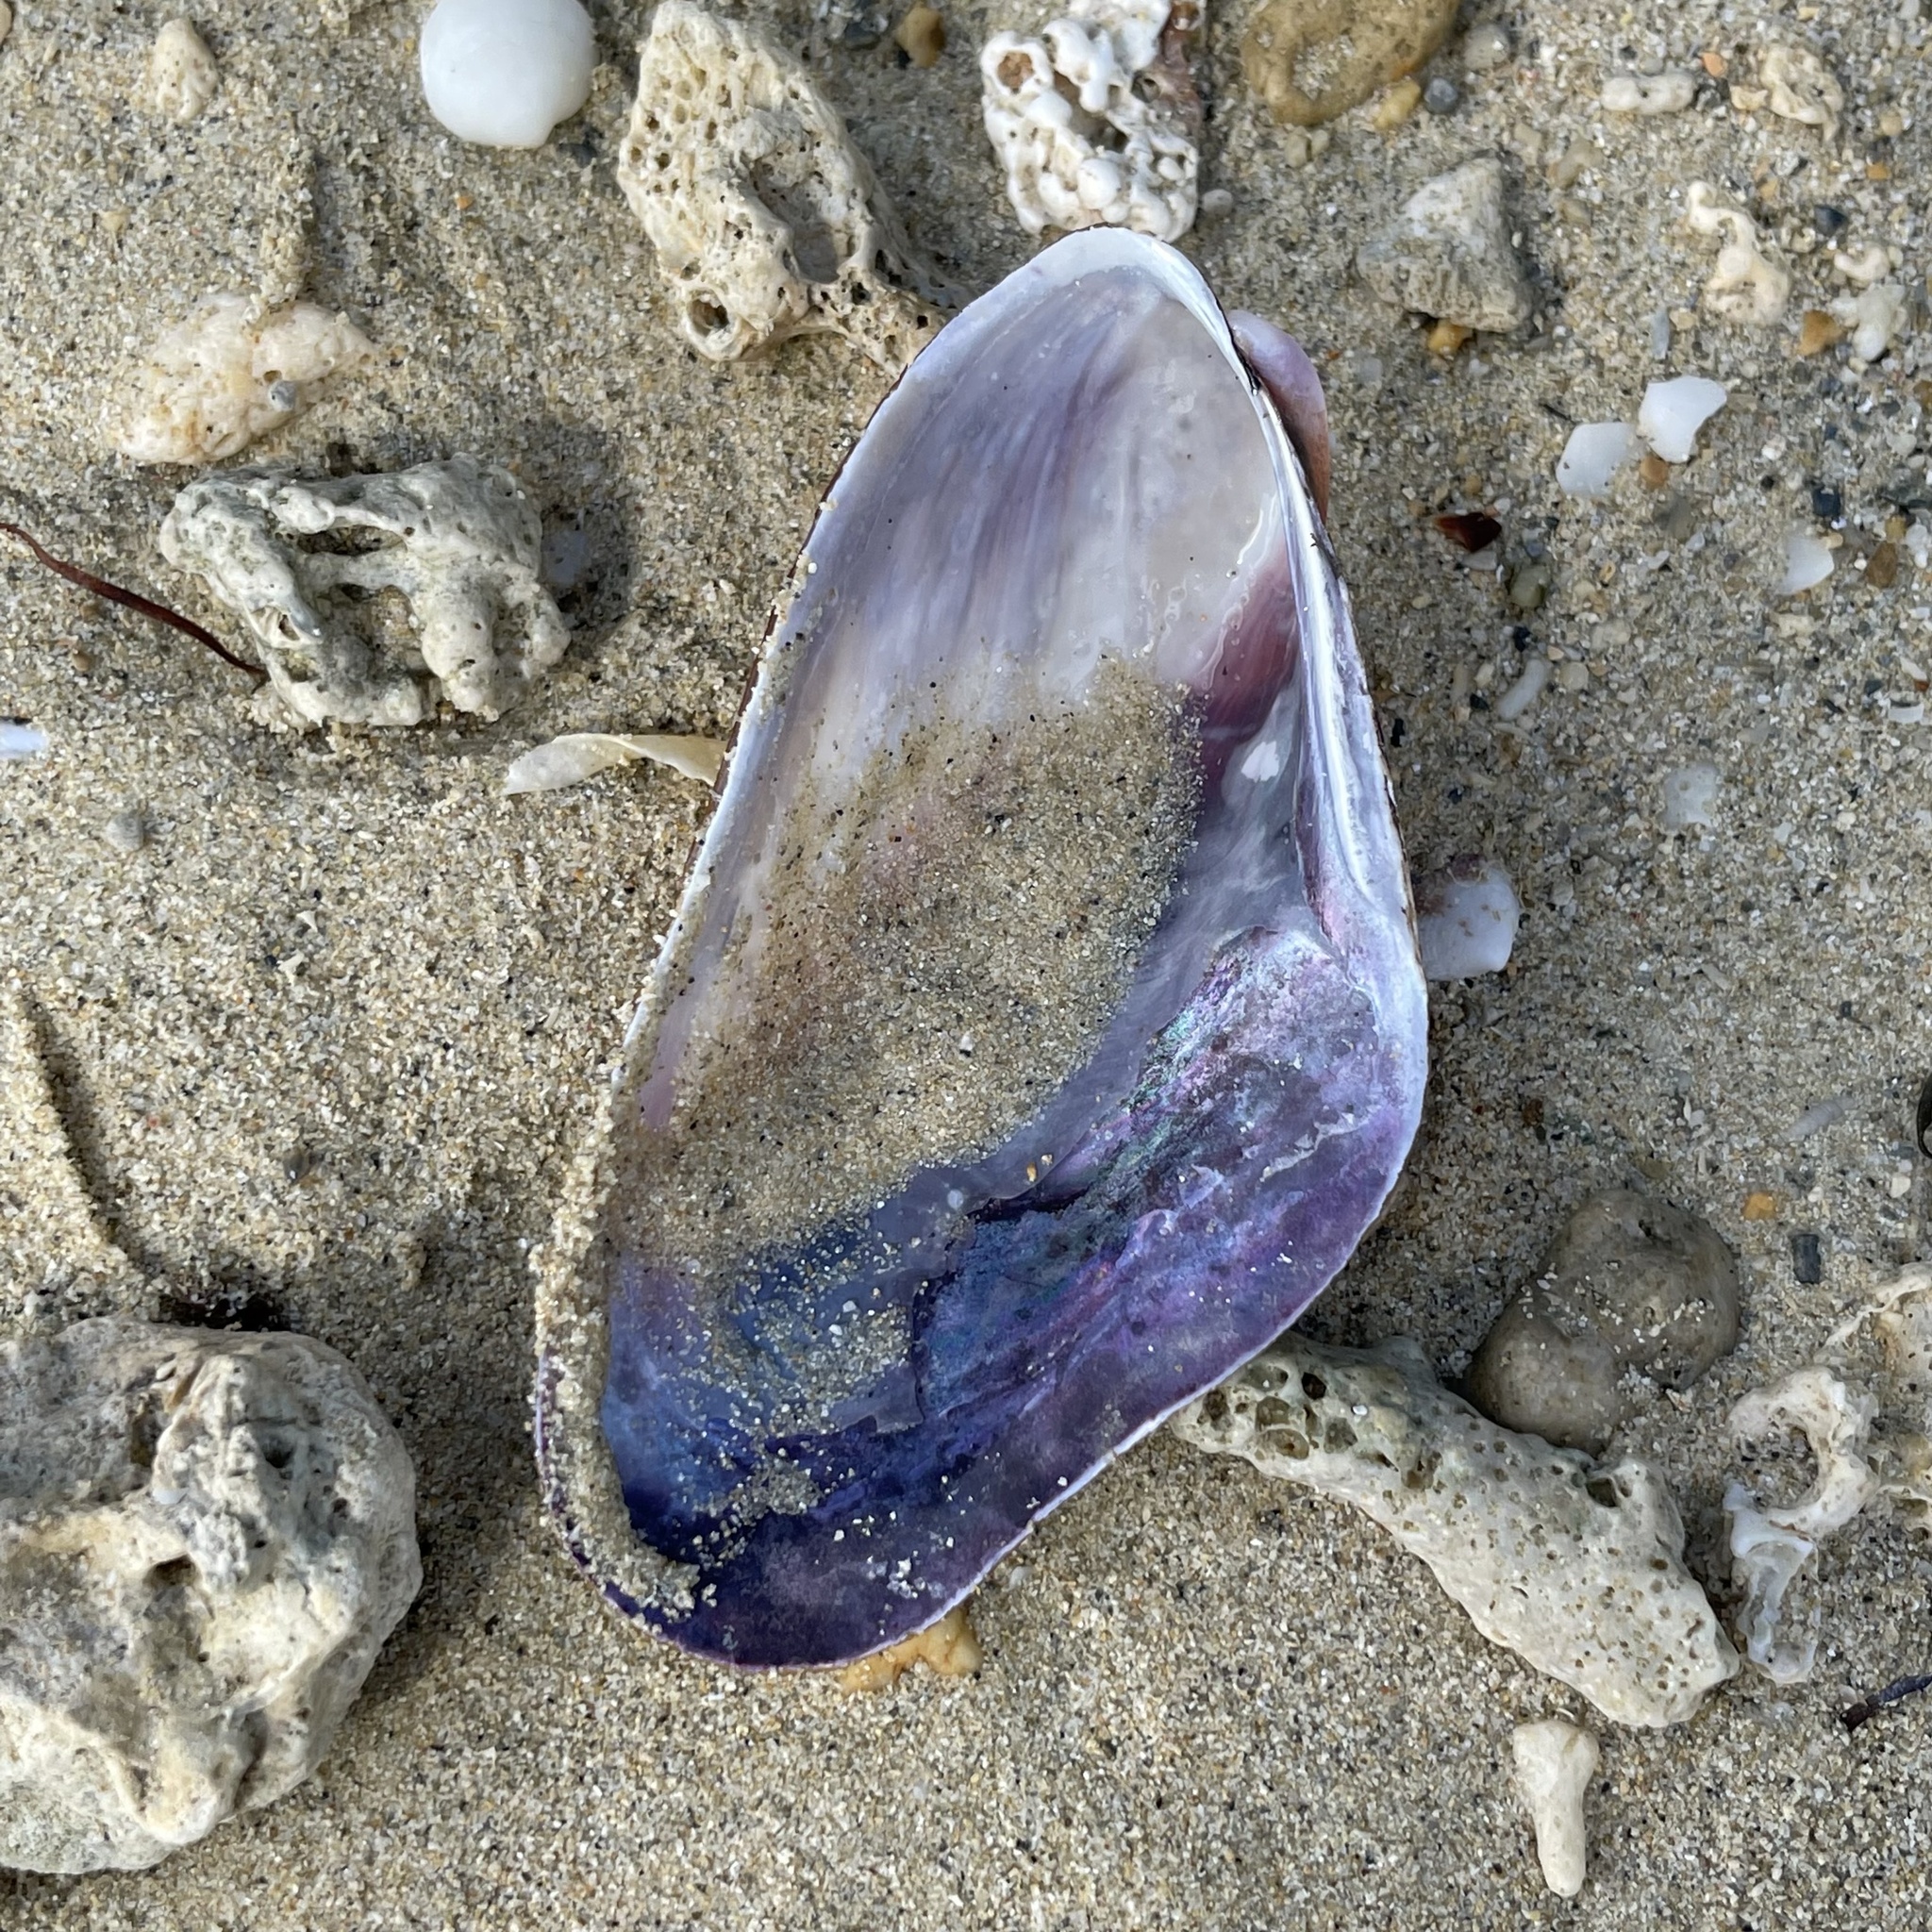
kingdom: Animalia
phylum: Mollusca
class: Bivalvia
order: Mytilida
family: Mytilidae
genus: Modiolus
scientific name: Modiolus auriculatus
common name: Ear mussel
